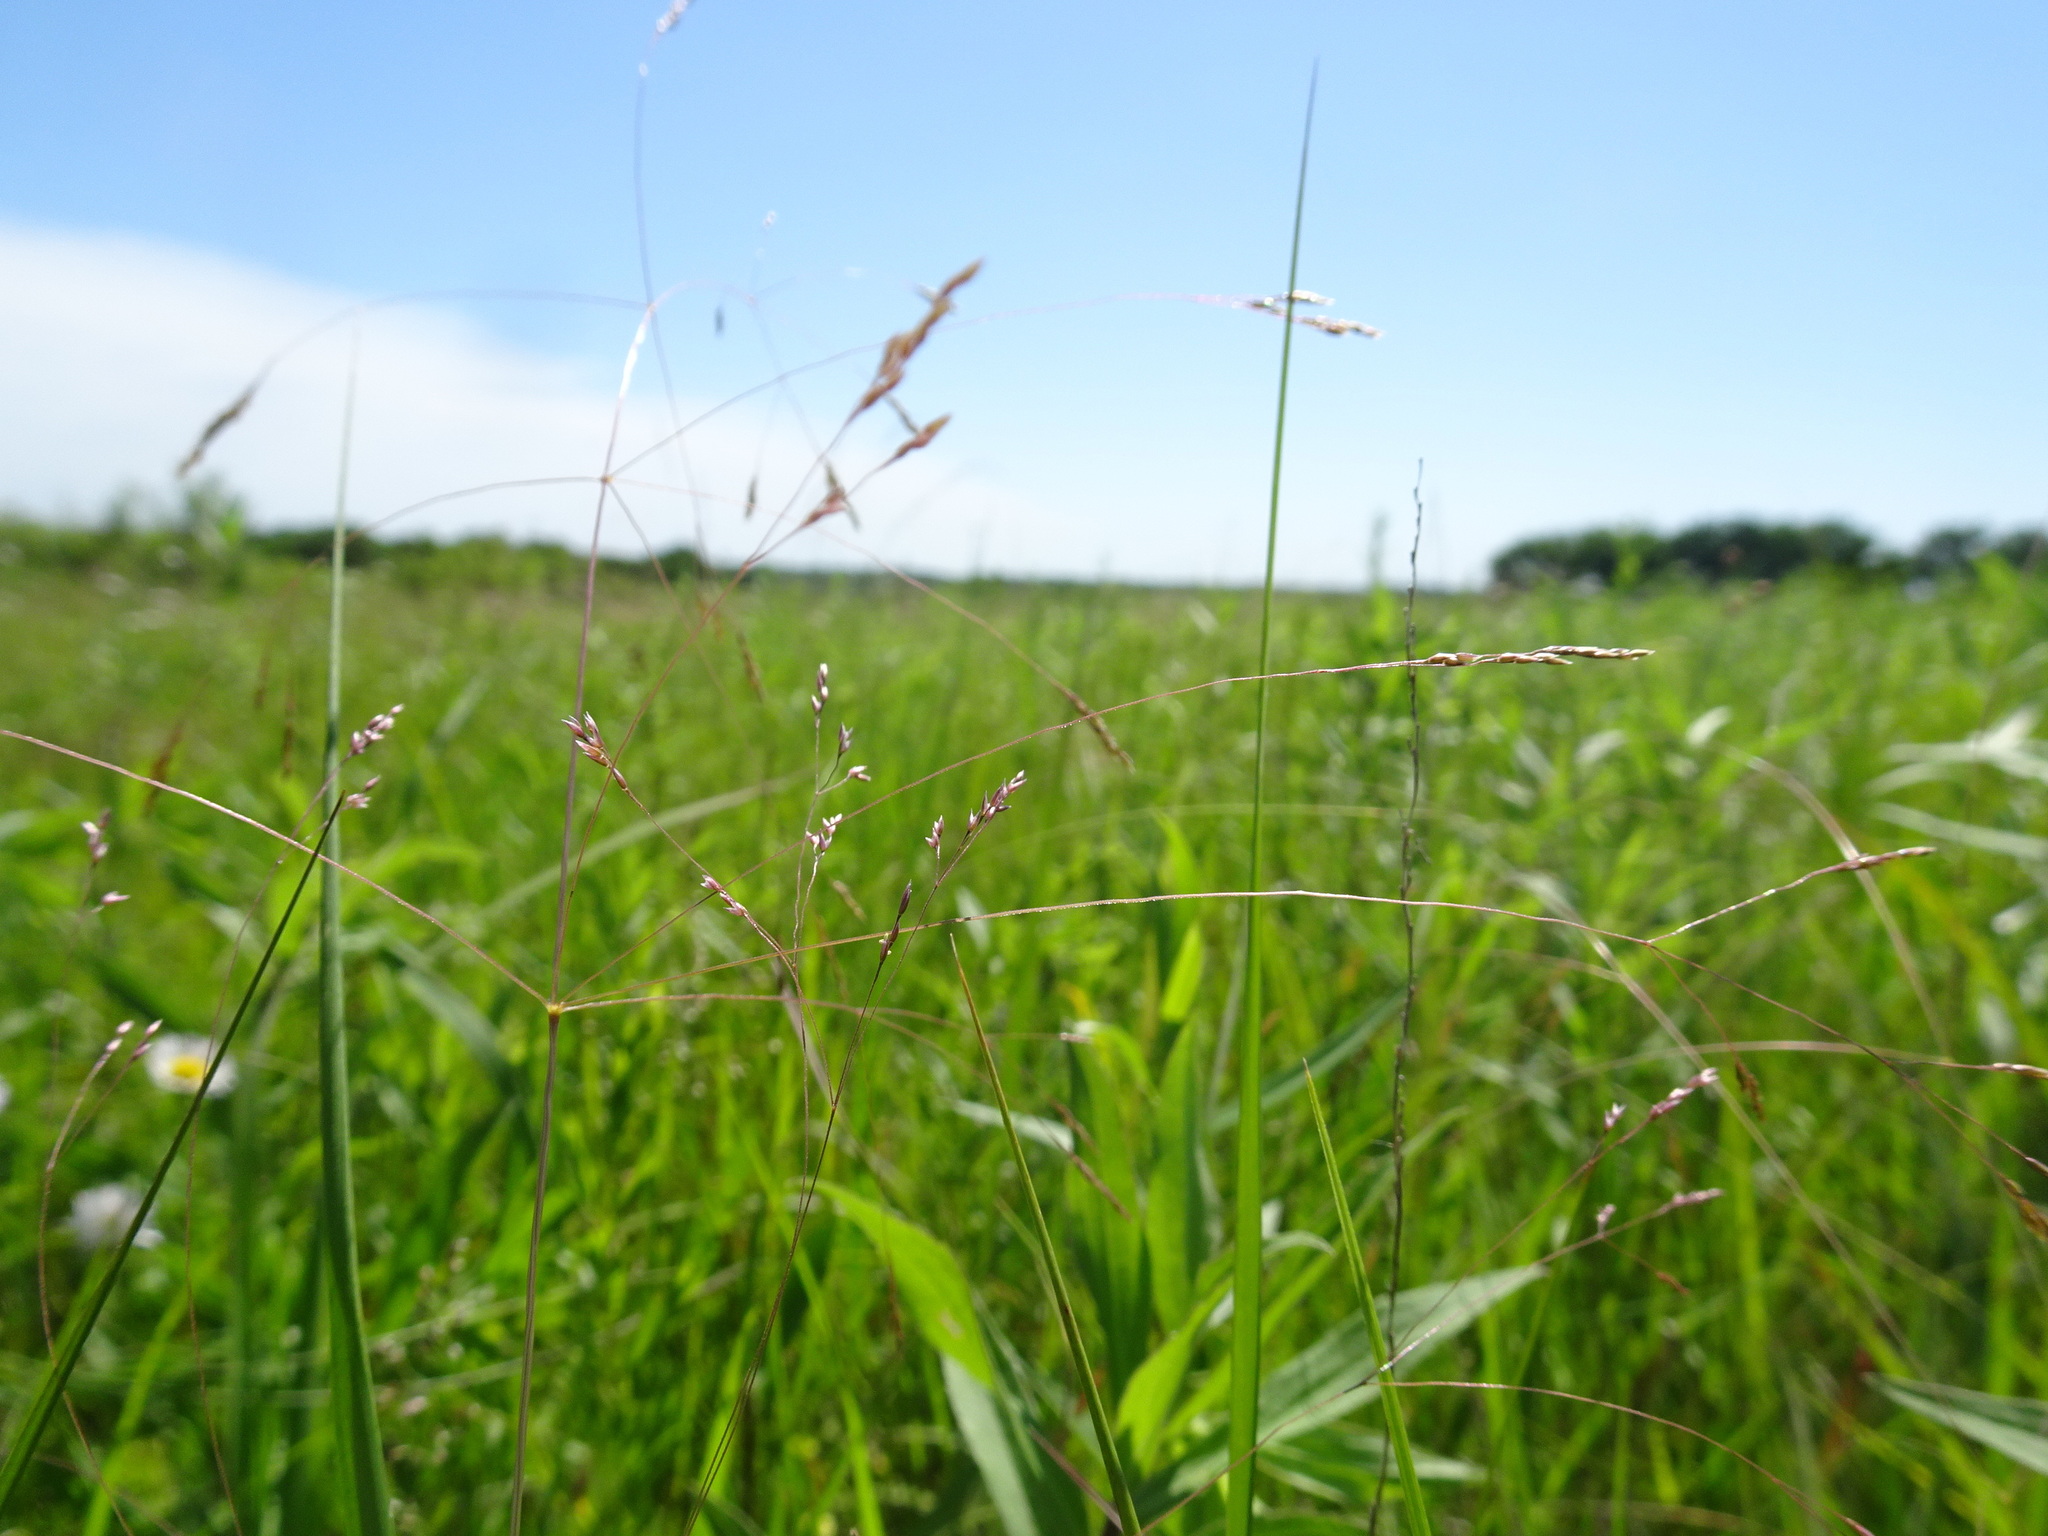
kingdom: Plantae
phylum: Tracheophyta
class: Liliopsida
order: Poales
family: Poaceae
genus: Panicum
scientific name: Panicum virgatum
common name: Switchgrass
